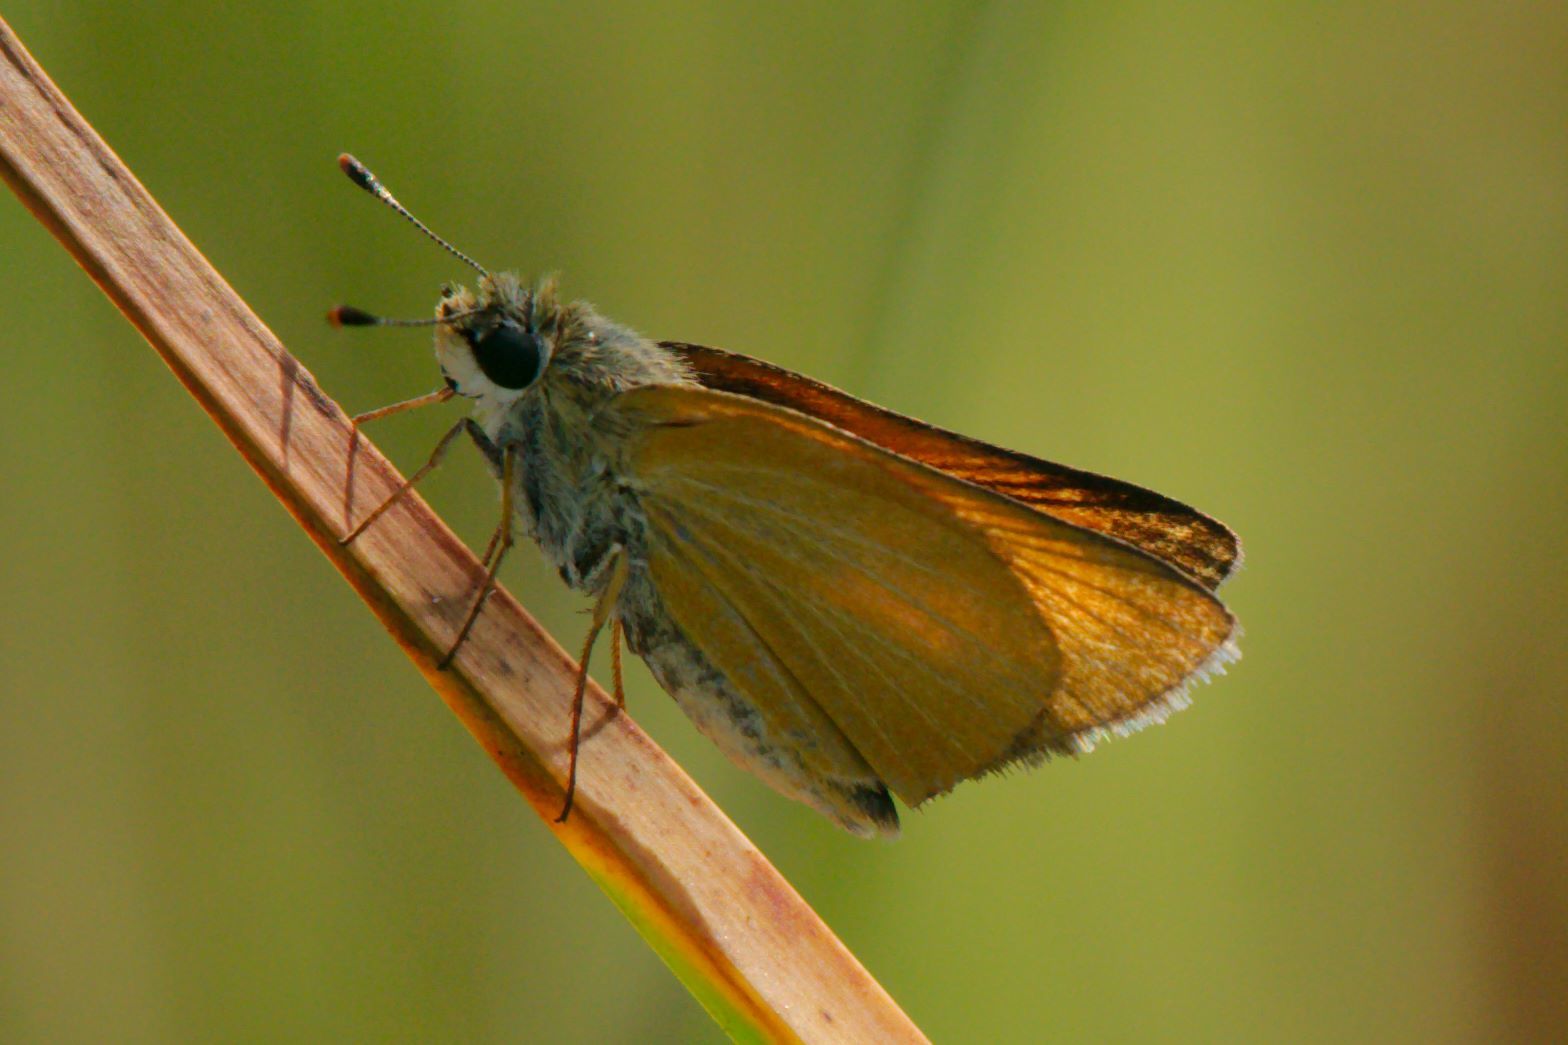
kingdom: Animalia
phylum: Arthropoda
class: Insecta
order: Lepidoptera
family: Hesperiidae
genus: Atrytone
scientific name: Atrytone delaware
